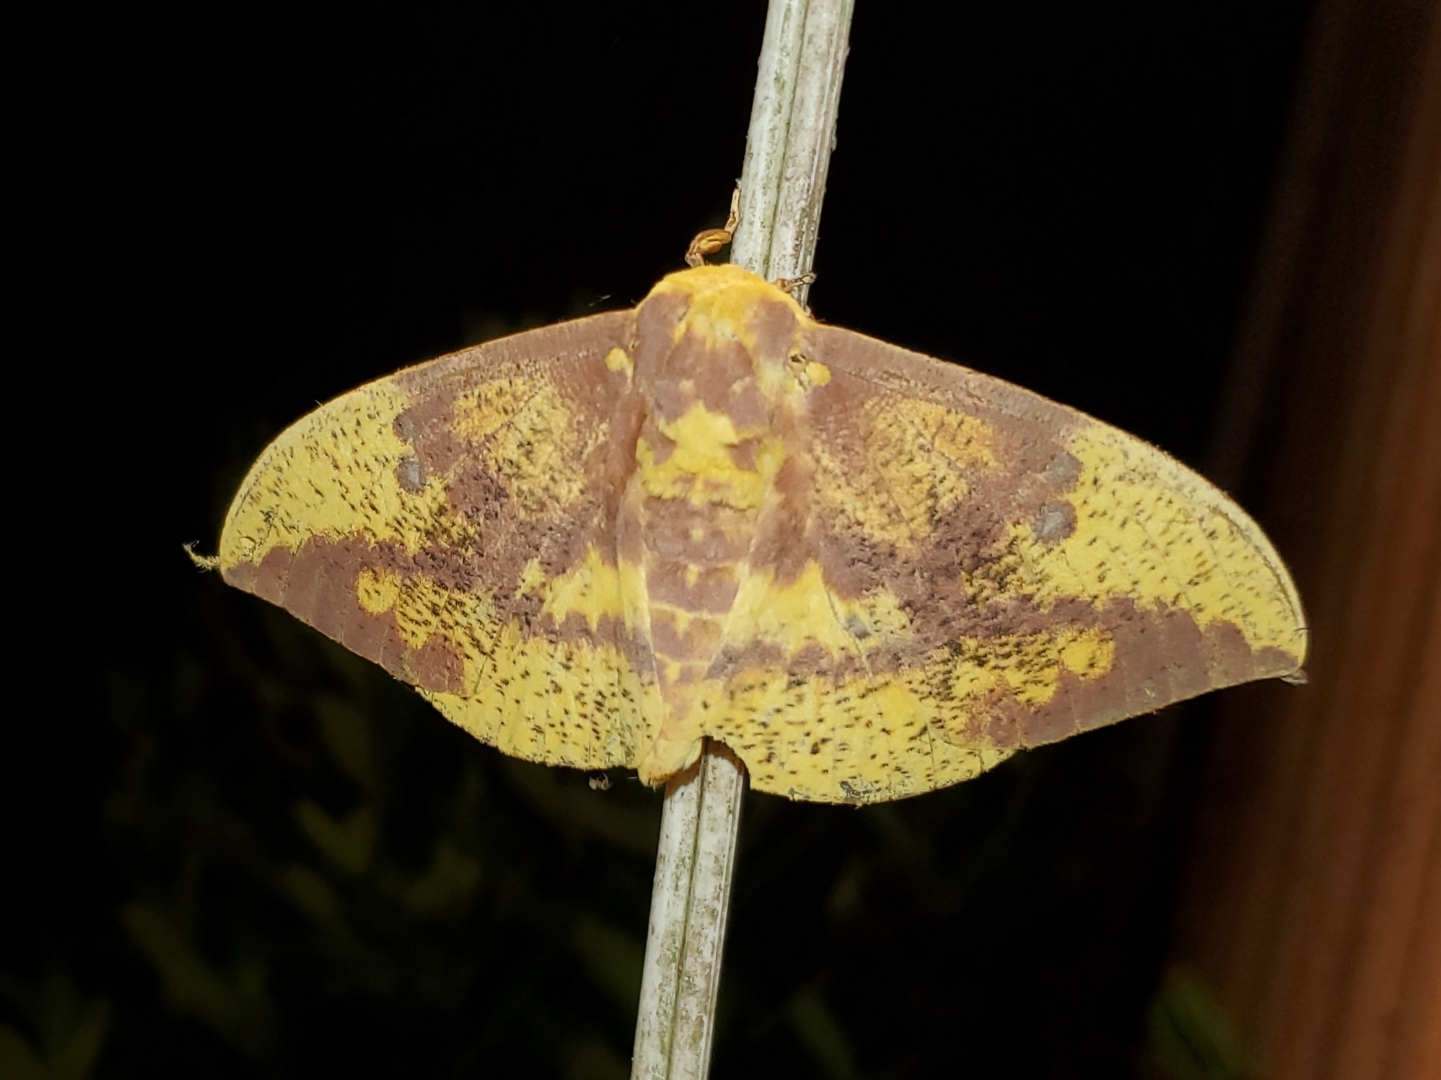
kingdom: Animalia
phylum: Arthropoda
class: Insecta
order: Lepidoptera
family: Saturniidae
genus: Eacles
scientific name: Eacles imperialis
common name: Imperial moth
